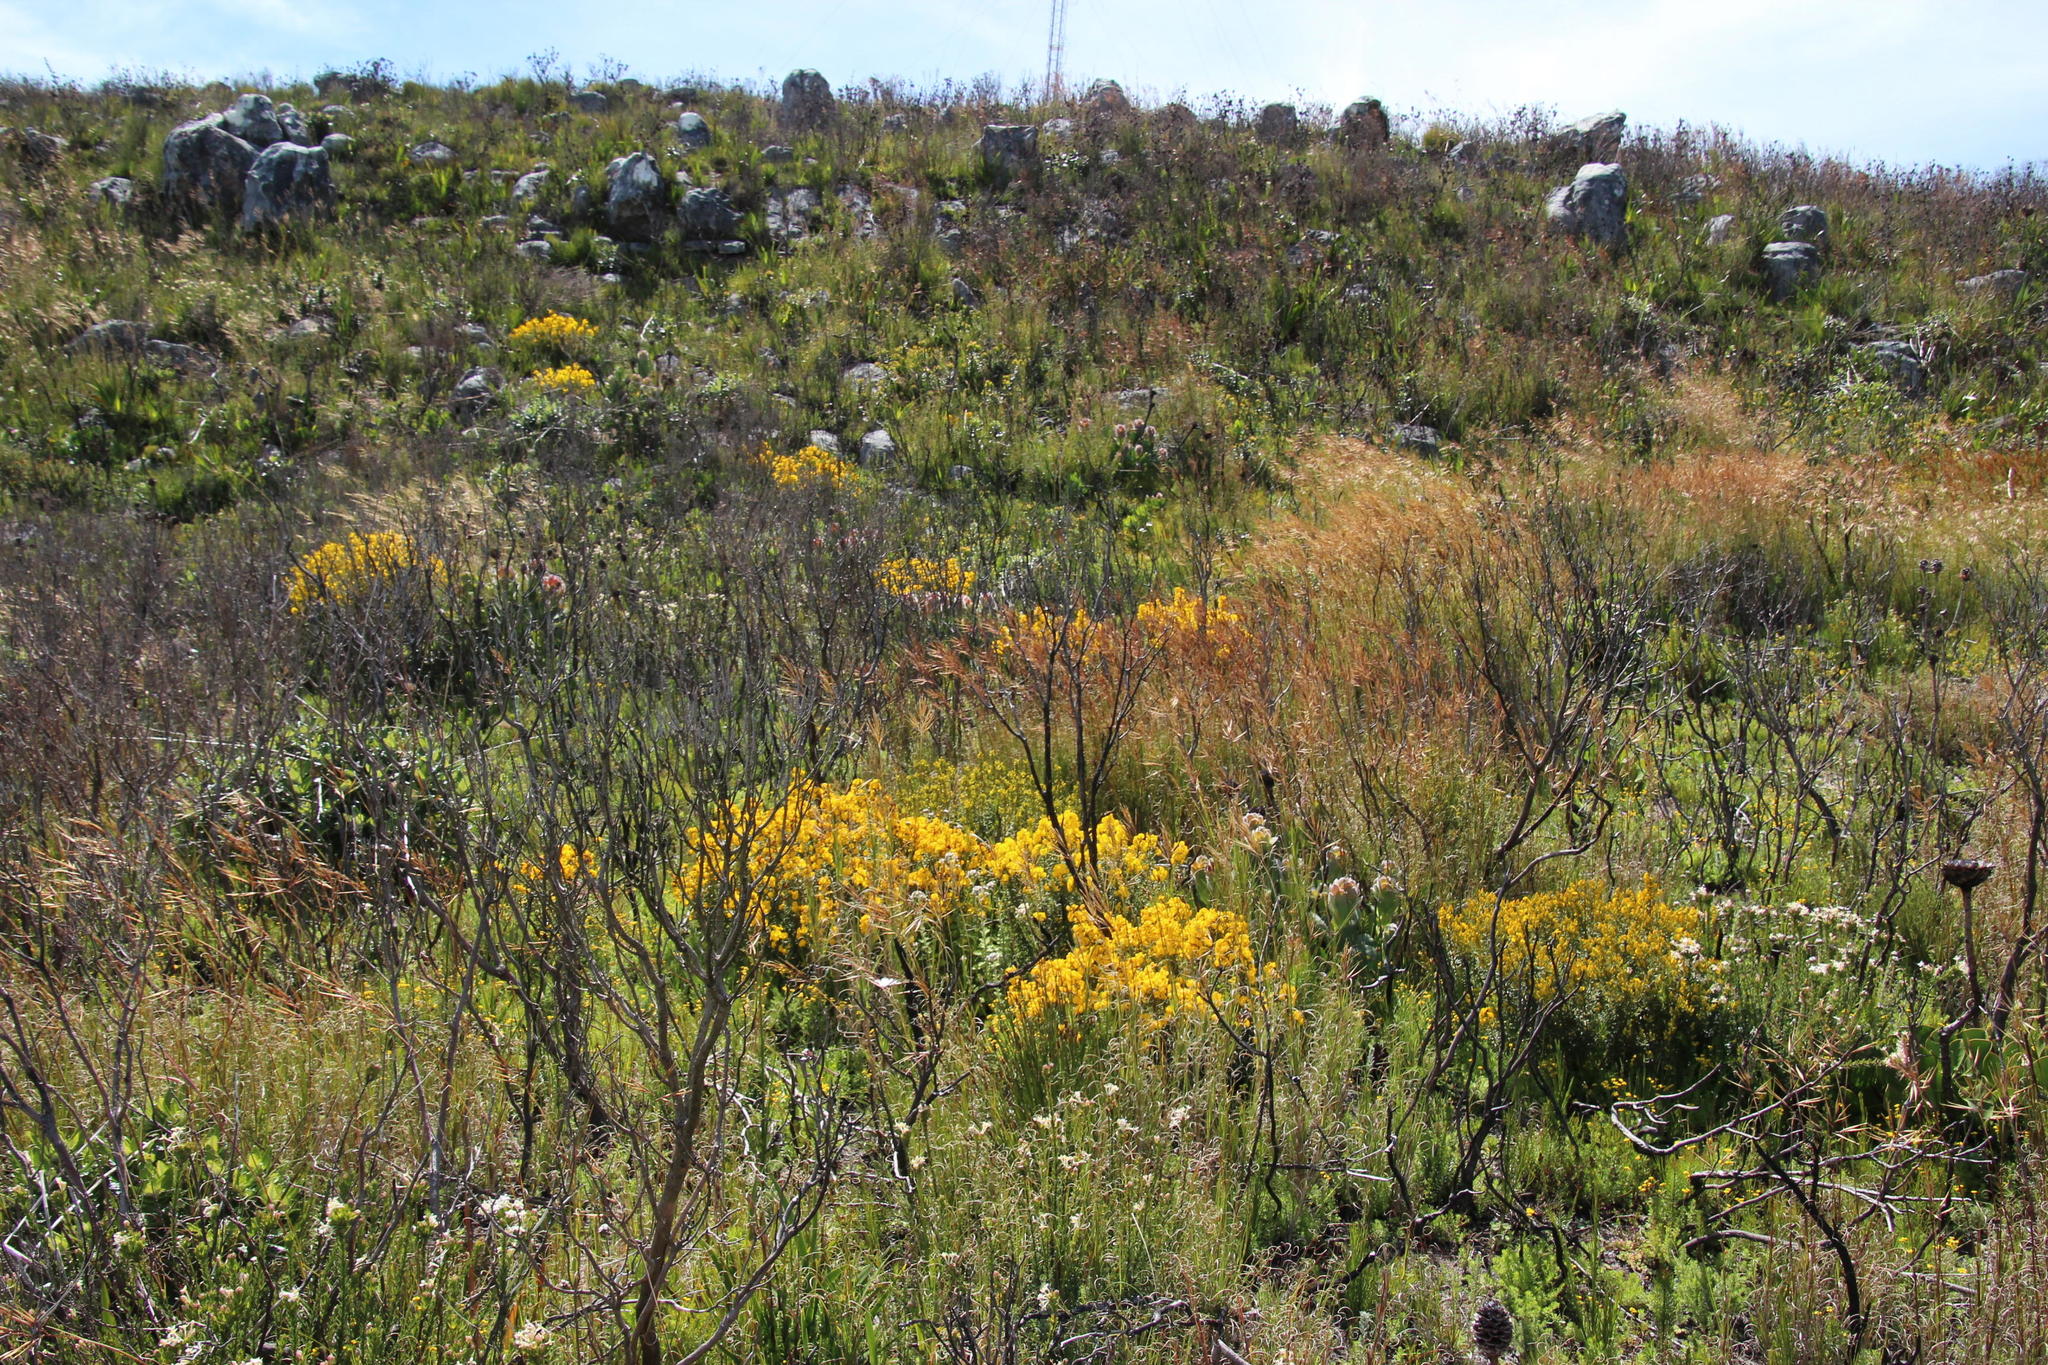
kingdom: Plantae
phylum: Tracheophyta
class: Magnoliopsida
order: Fabales
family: Fabaceae
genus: Cyclopia
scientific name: Cyclopia genistoides
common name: Honeybush tea
